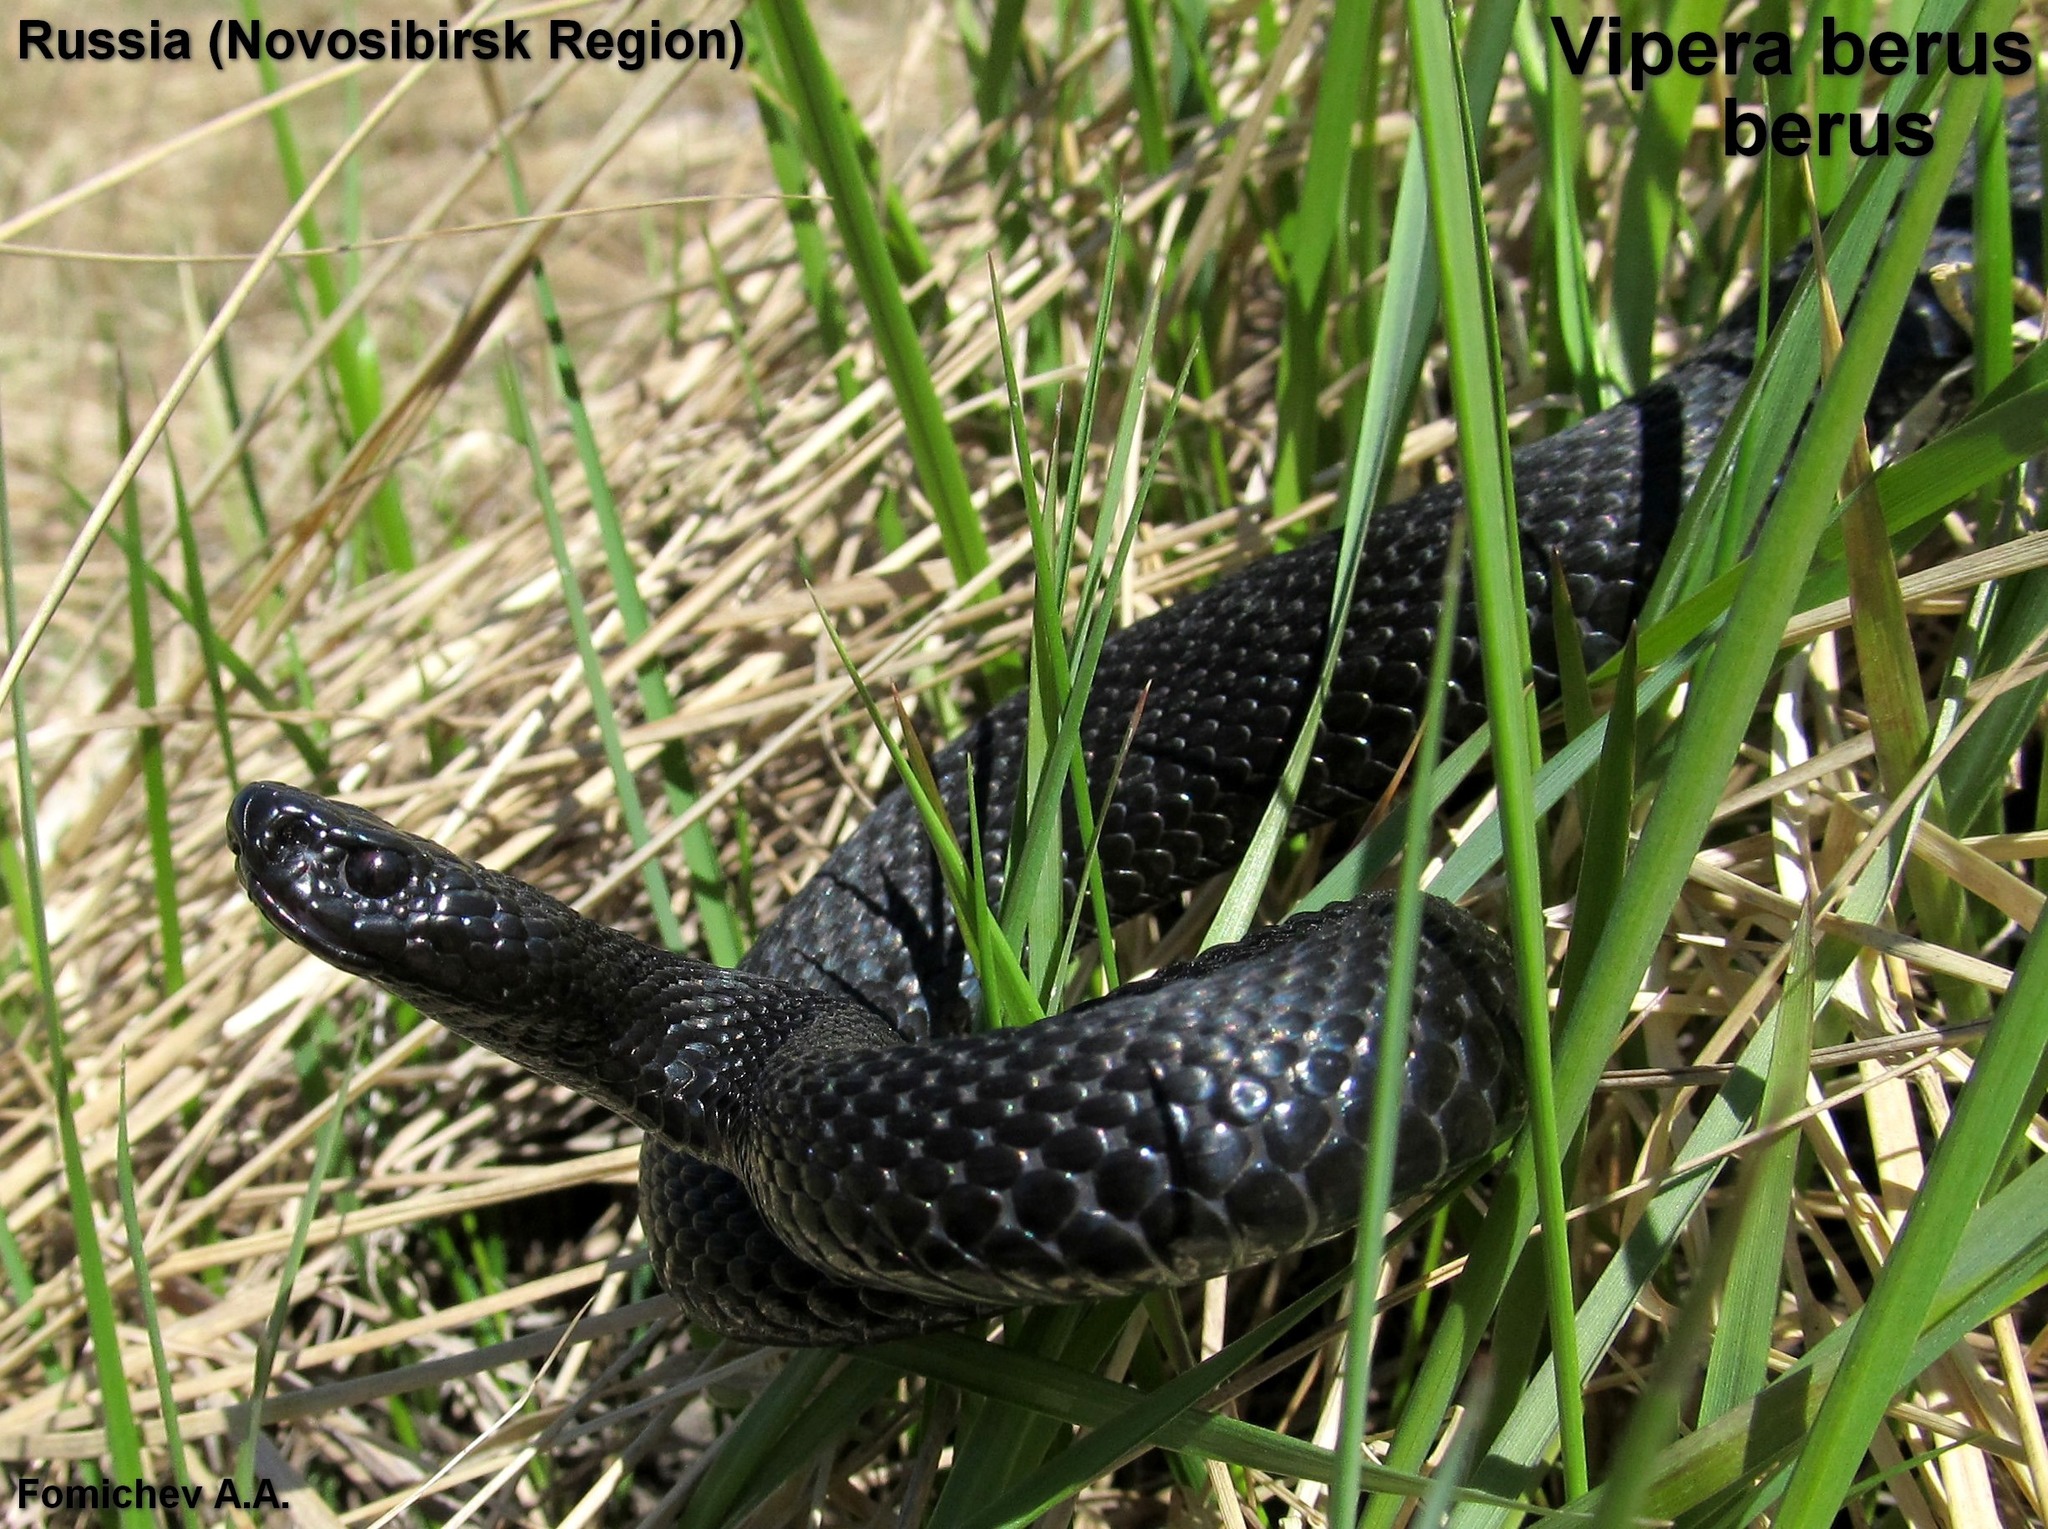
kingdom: Animalia
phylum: Chordata
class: Squamata
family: Viperidae
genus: Vipera
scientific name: Vipera berus
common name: Adder
